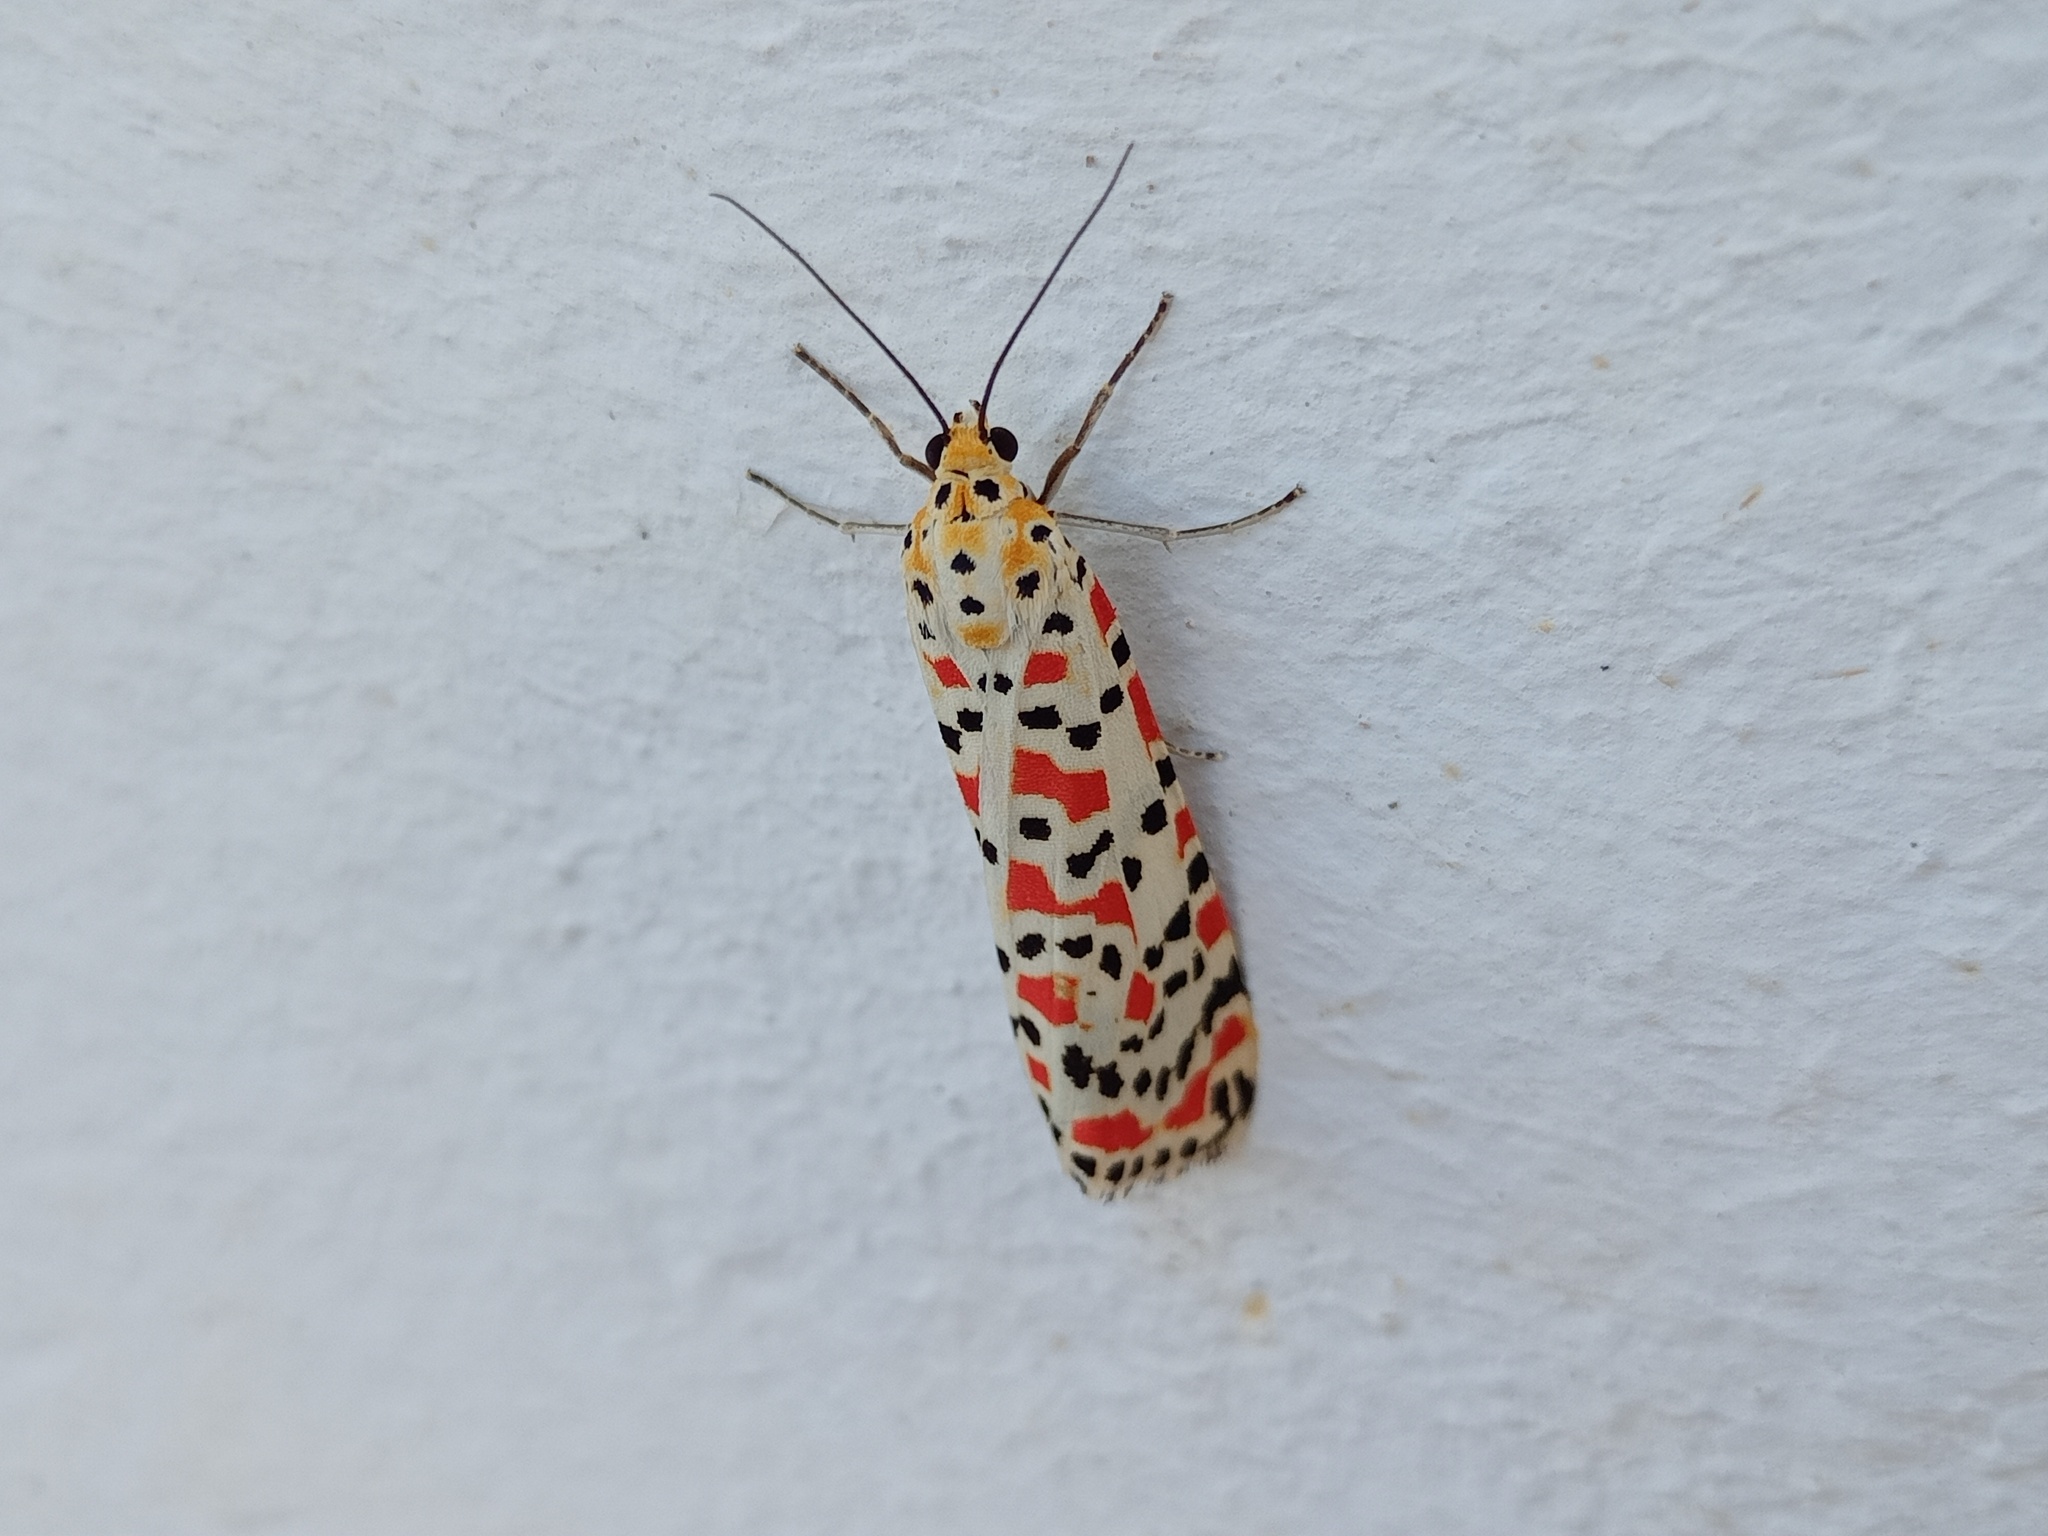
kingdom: Animalia
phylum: Arthropoda
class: Insecta
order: Lepidoptera
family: Erebidae
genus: Utetheisa
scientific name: Utetheisa pulchella
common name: Crimson speckled
